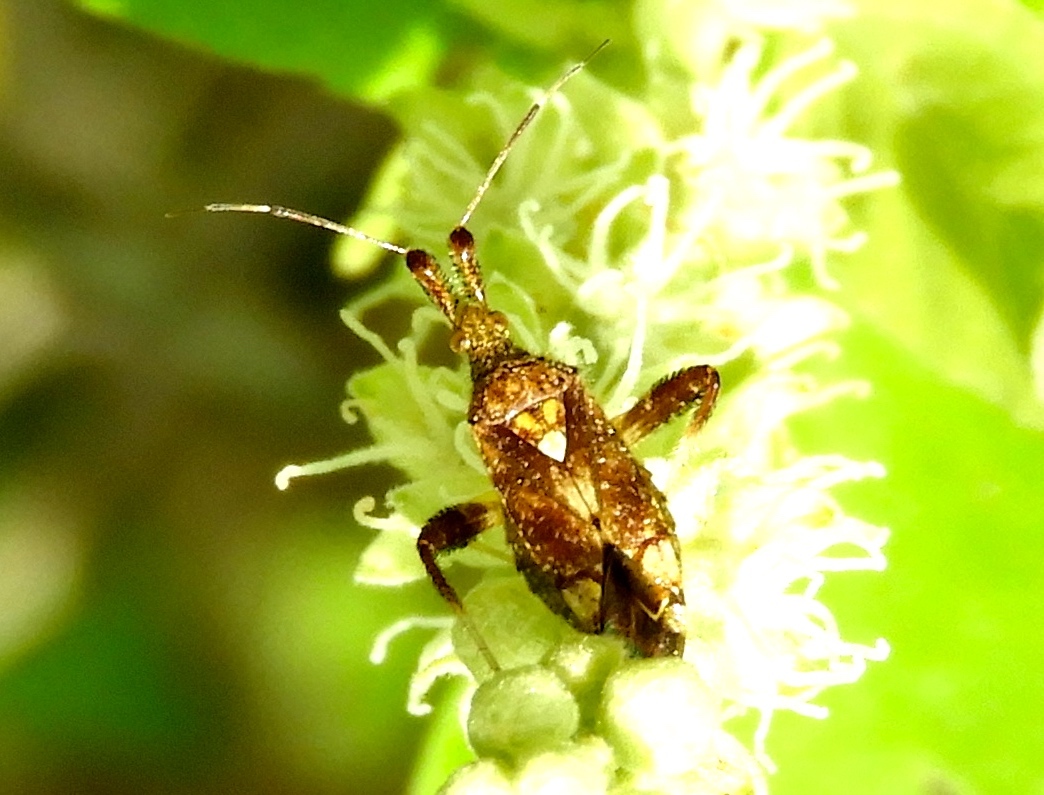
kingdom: Animalia
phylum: Arthropoda
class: Insecta
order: Hemiptera
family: Miridae
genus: Neurocolpus
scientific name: Neurocolpus
